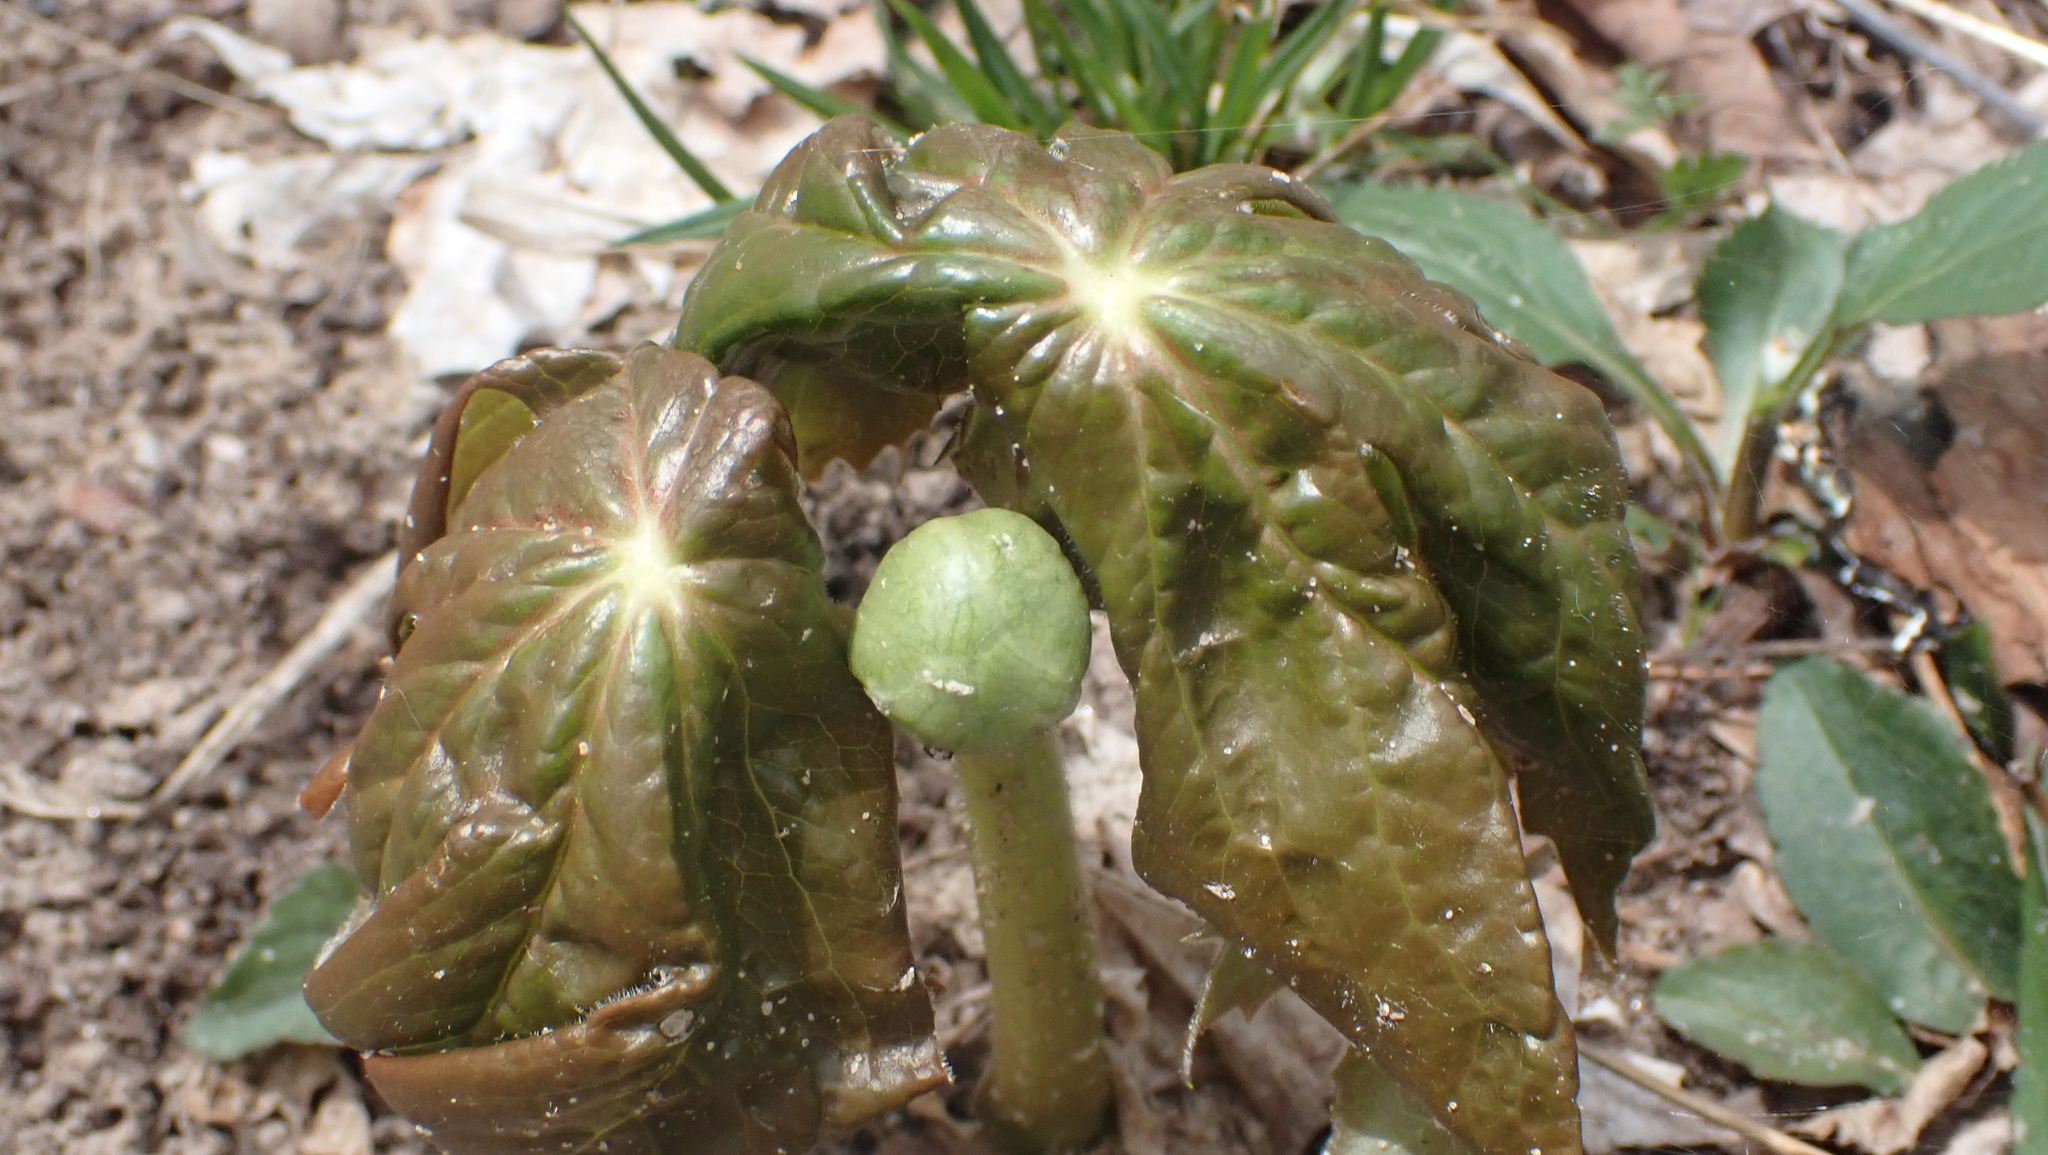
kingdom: Plantae
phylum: Tracheophyta
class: Magnoliopsida
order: Ranunculales
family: Berberidaceae
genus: Podophyllum
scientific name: Podophyllum peltatum
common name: Wild mandrake
